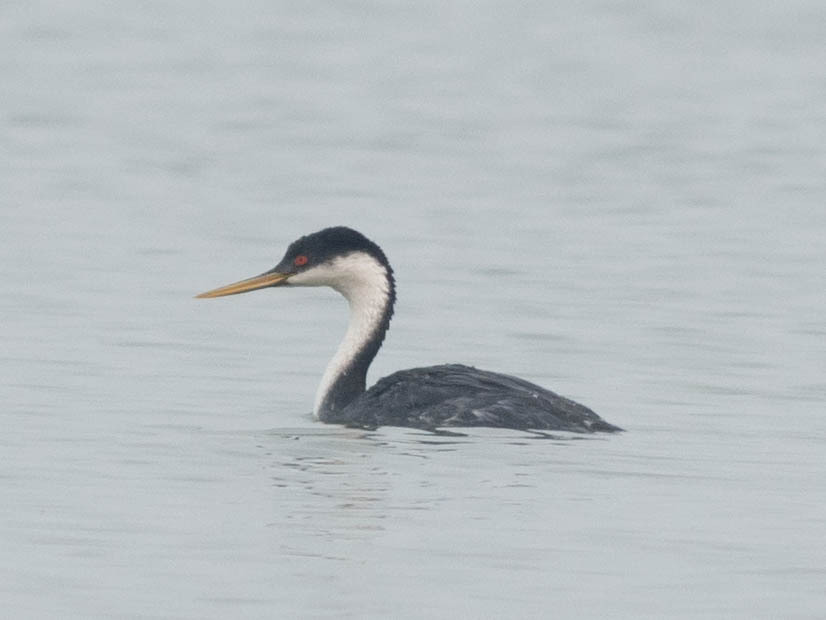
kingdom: Animalia
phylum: Chordata
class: Aves
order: Podicipediformes
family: Podicipedidae
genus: Aechmophorus
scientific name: Aechmophorus occidentalis
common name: Western grebe
